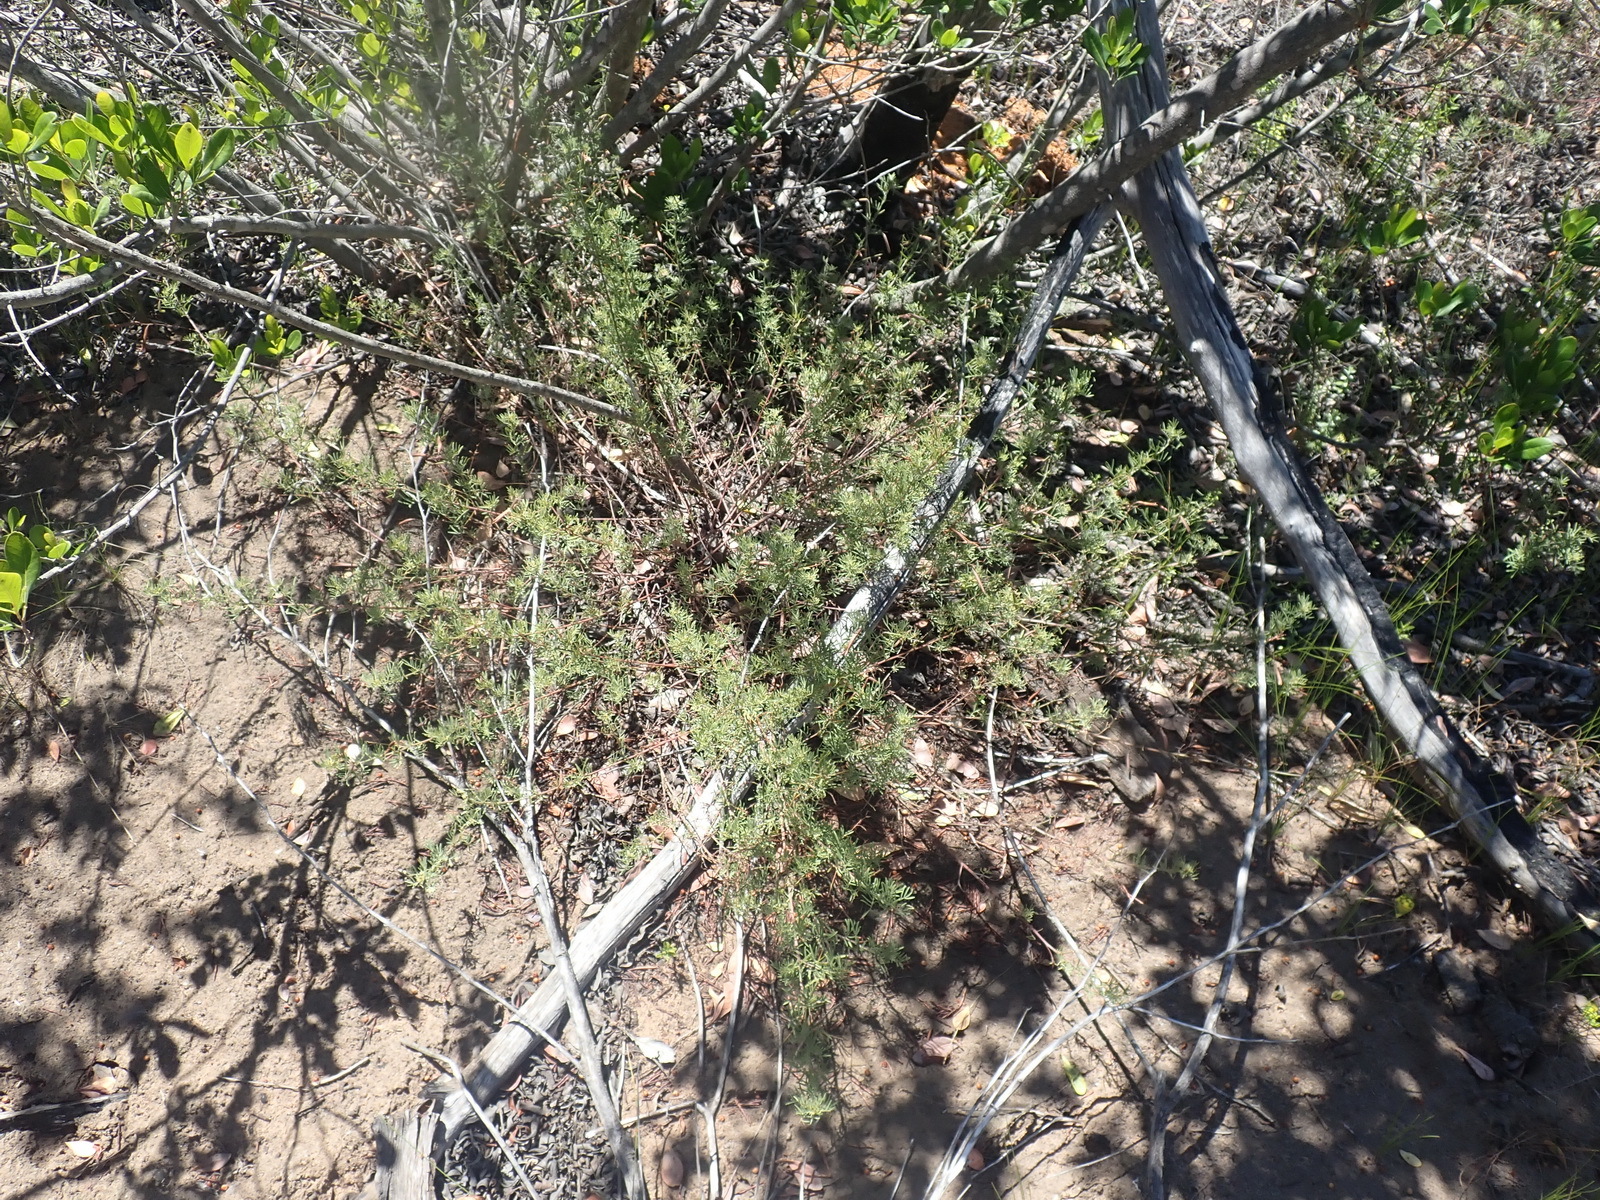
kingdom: Plantae
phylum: Tracheophyta
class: Magnoliopsida
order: Fabales
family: Fabaceae
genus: Indigofera
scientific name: Indigofera verrucosa
